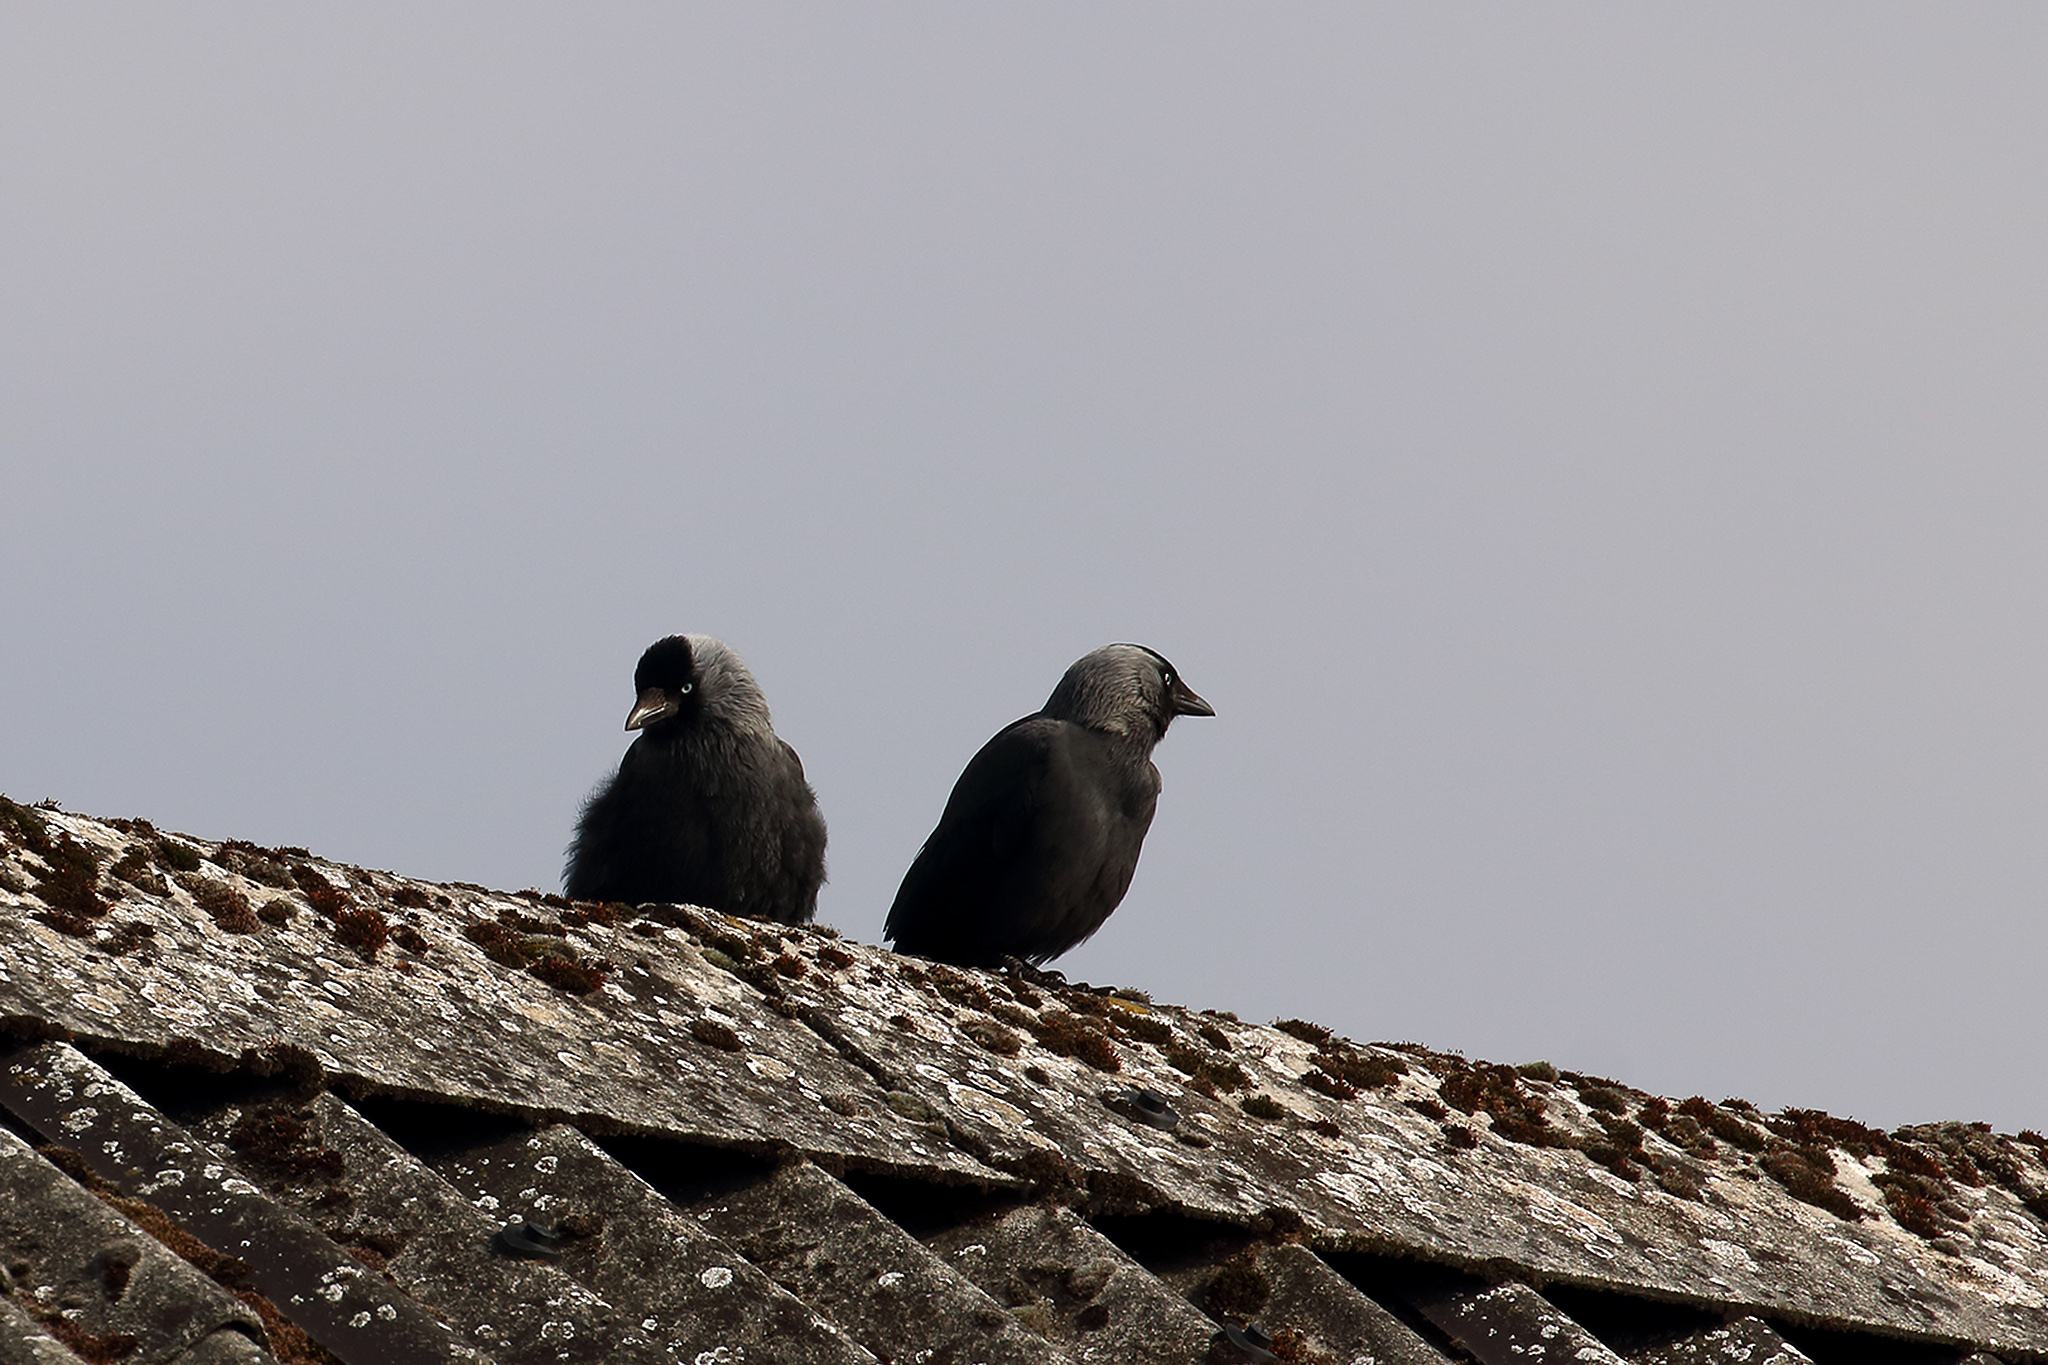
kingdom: Animalia
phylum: Chordata
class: Aves
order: Passeriformes
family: Corvidae
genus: Coloeus
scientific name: Coloeus monedula
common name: Western jackdaw
